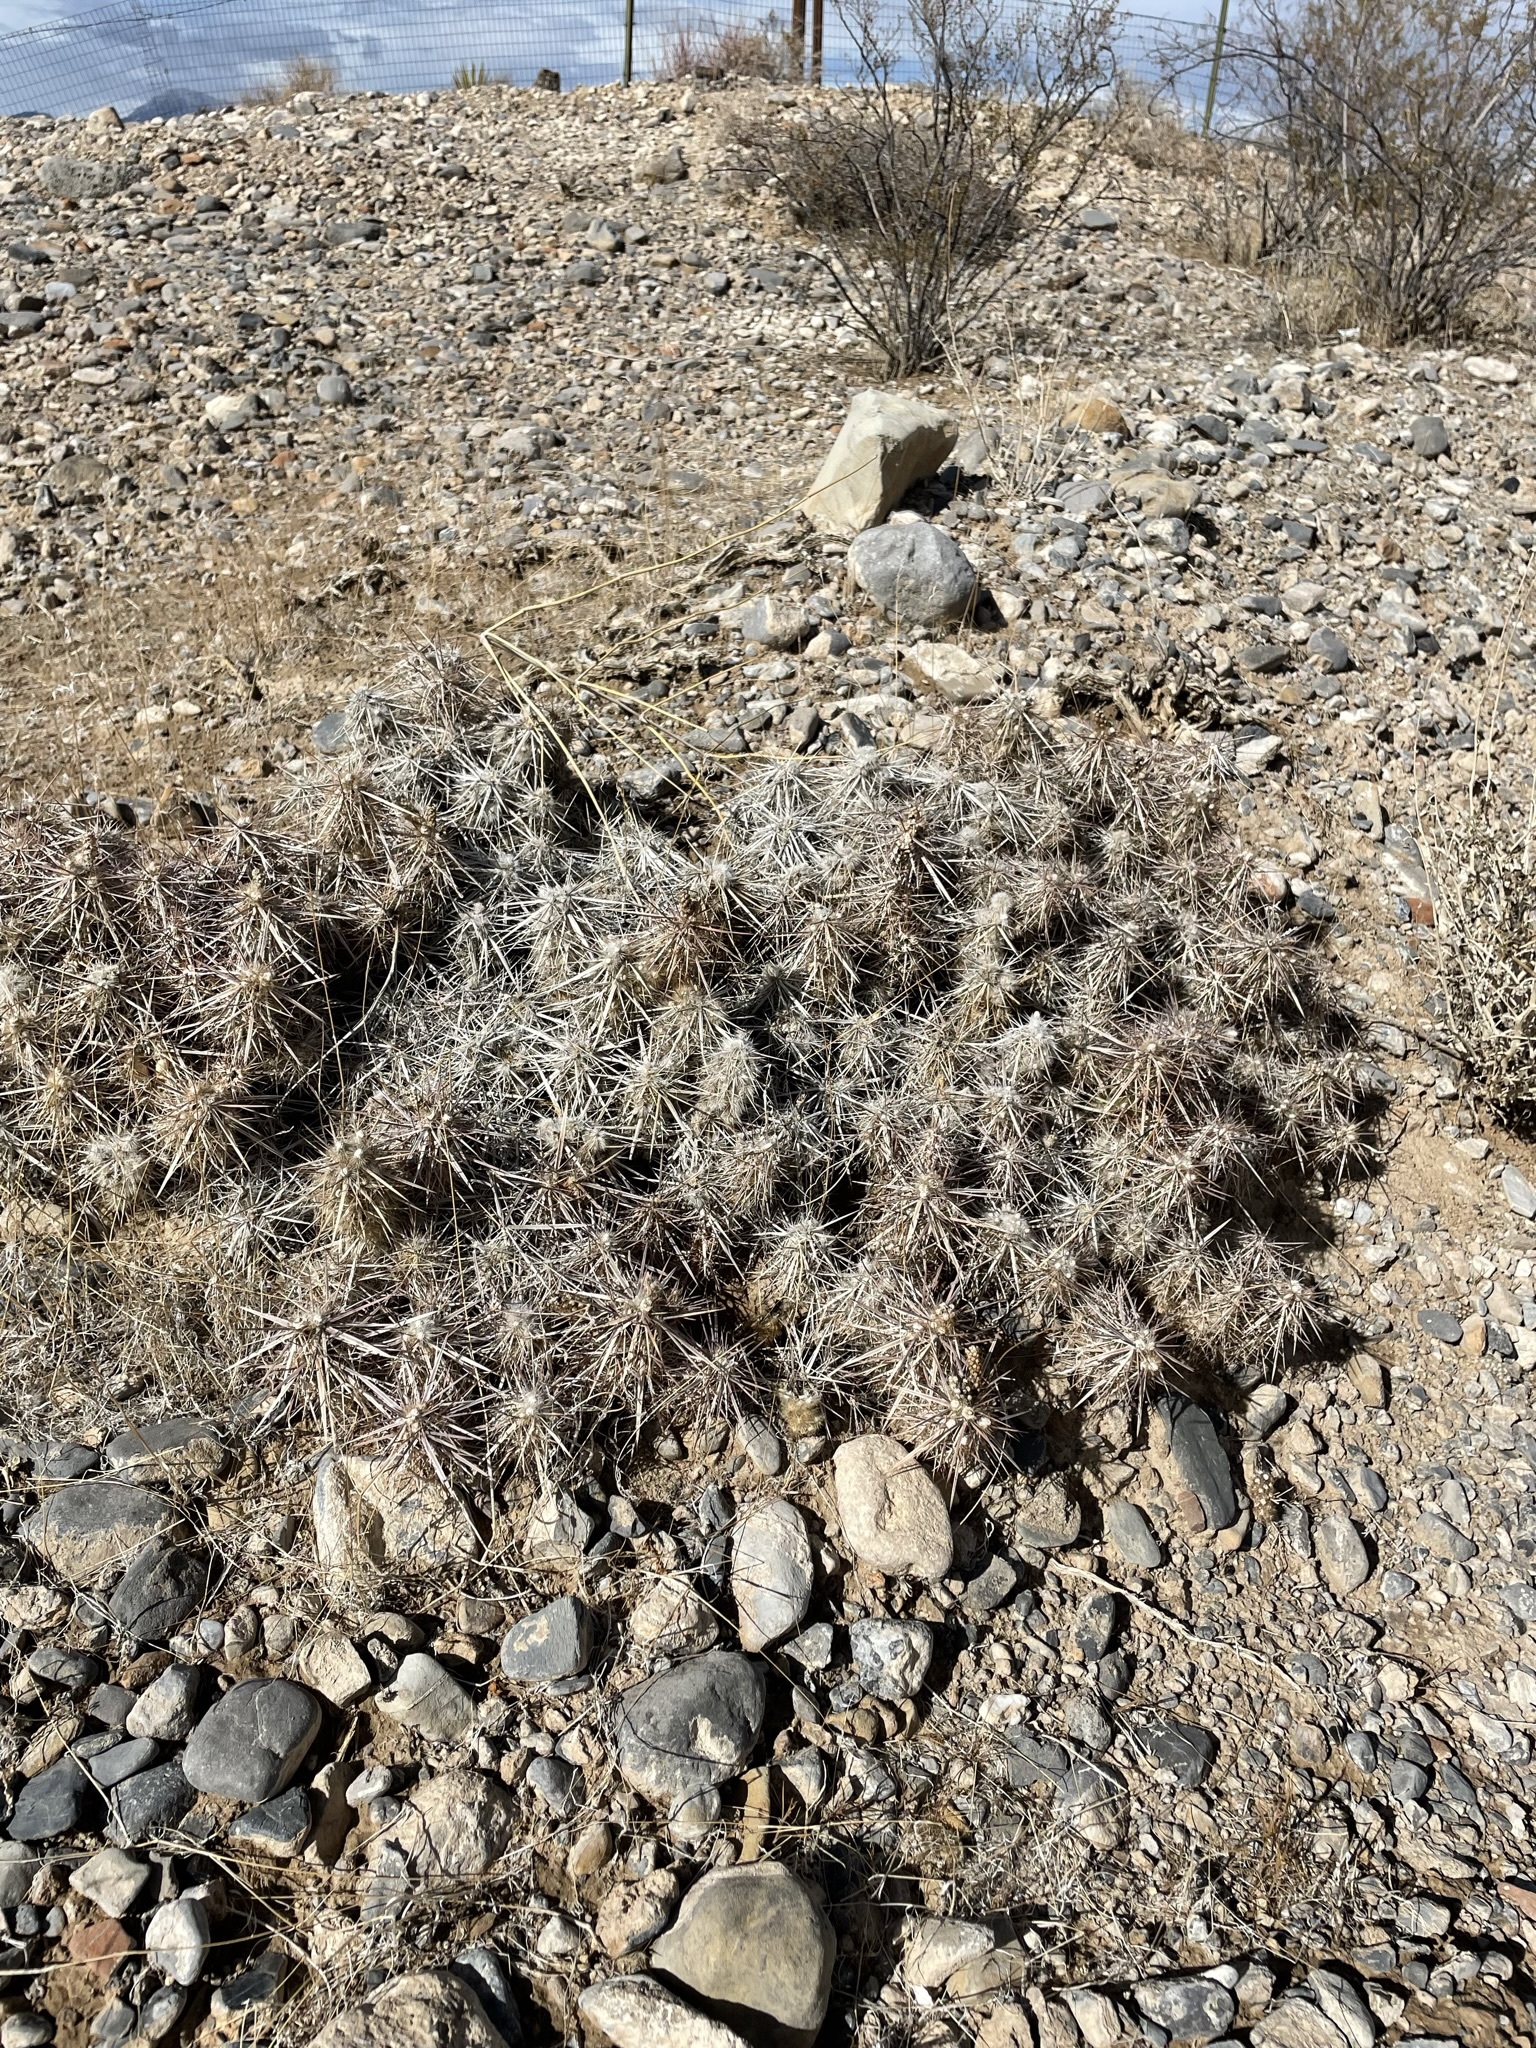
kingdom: Plantae
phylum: Tracheophyta
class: Magnoliopsida
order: Caryophyllales
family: Cactaceae
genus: Grusonia
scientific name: Grusonia parishiorum
